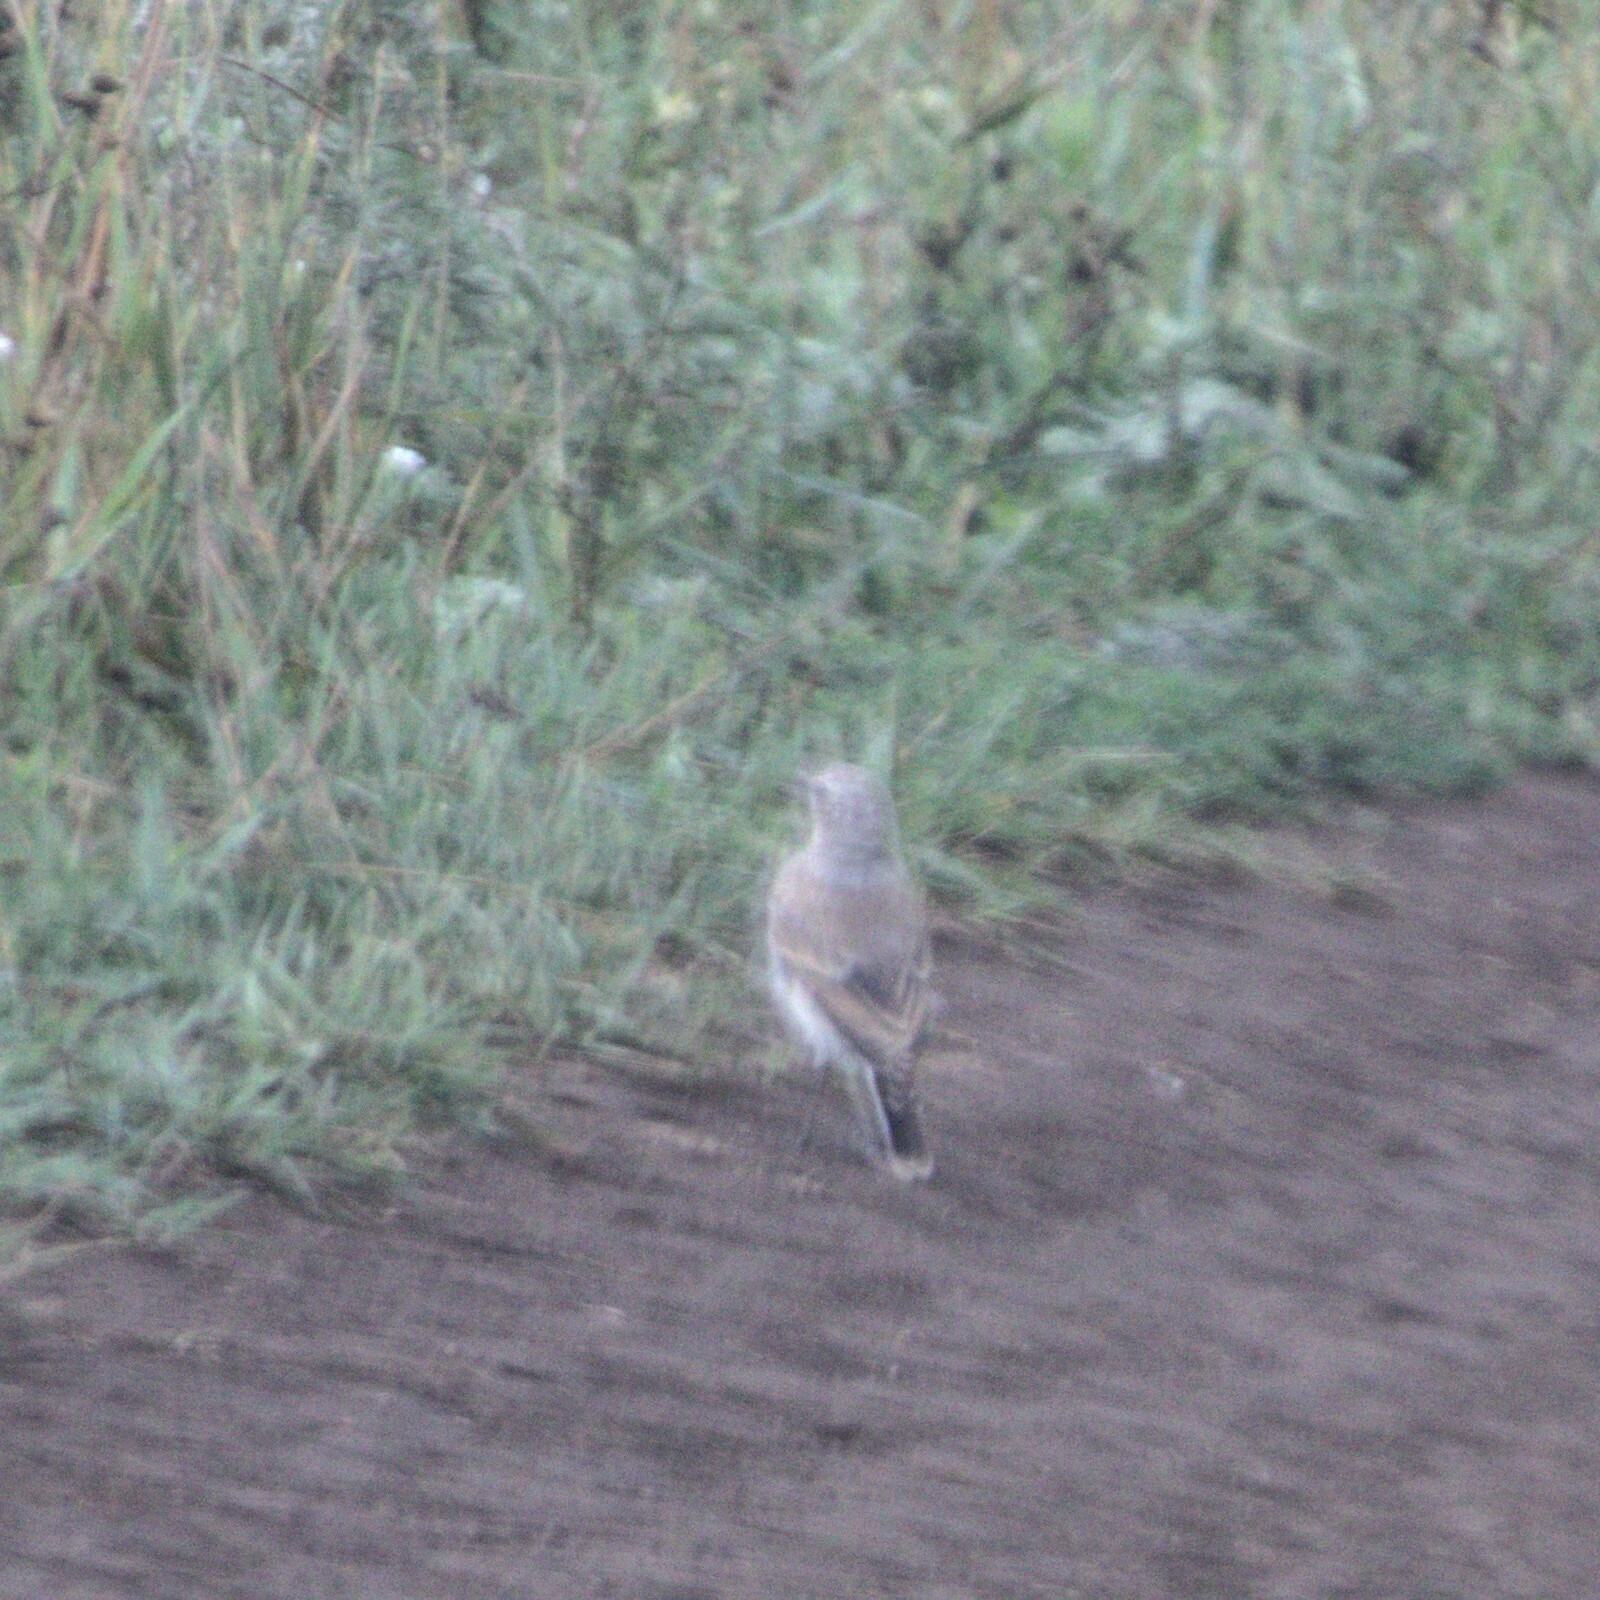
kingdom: Animalia
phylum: Chordata
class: Aves
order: Passeriformes
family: Muscicapidae
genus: Oenanthe
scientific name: Oenanthe oenanthe
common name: Northern wheatear
